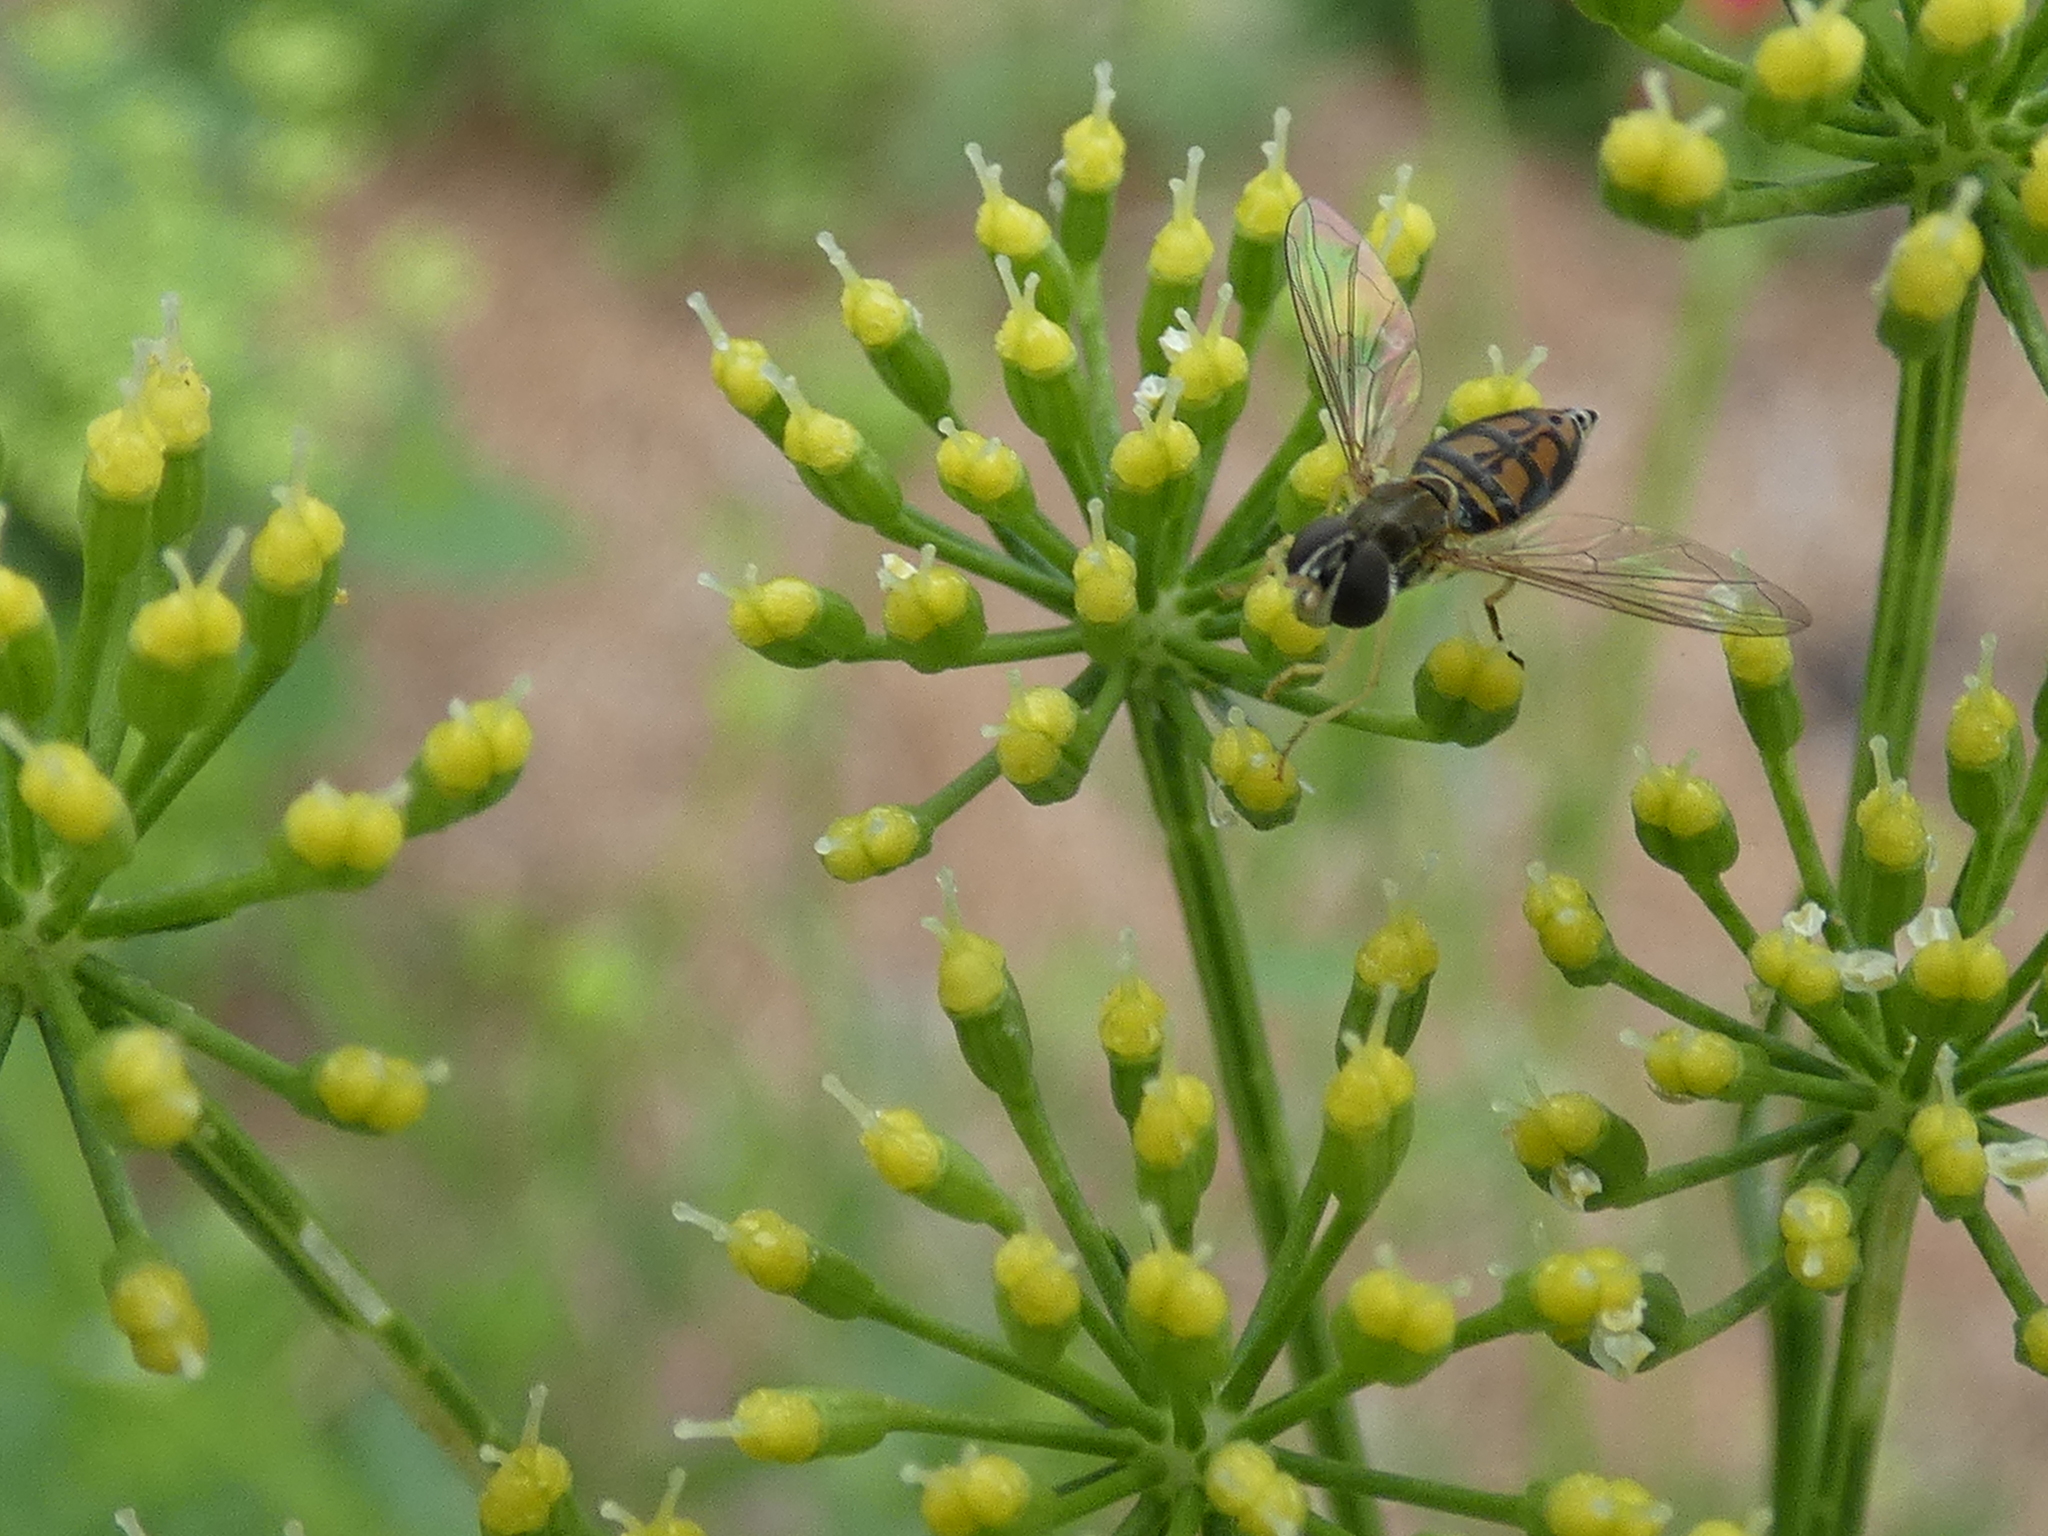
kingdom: Animalia
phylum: Arthropoda
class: Insecta
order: Diptera
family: Syrphidae
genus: Toxomerus
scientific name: Toxomerus marginatus
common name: Syrphid fly
